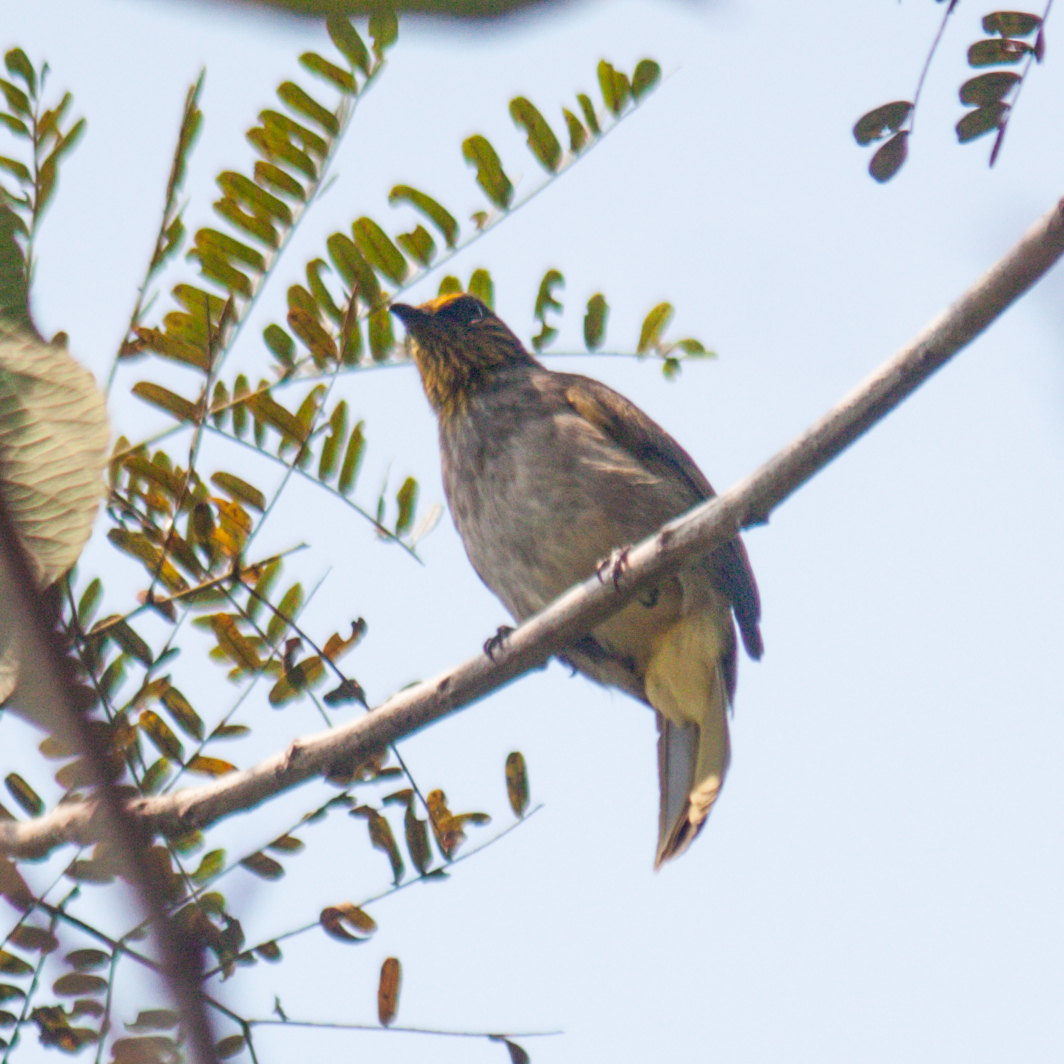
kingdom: Animalia
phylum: Chordata
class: Aves
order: Passeriformes
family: Pycnonotidae
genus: Pycnonotus
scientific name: Pycnonotus finlaysoni
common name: Stripe-throated bulbul
